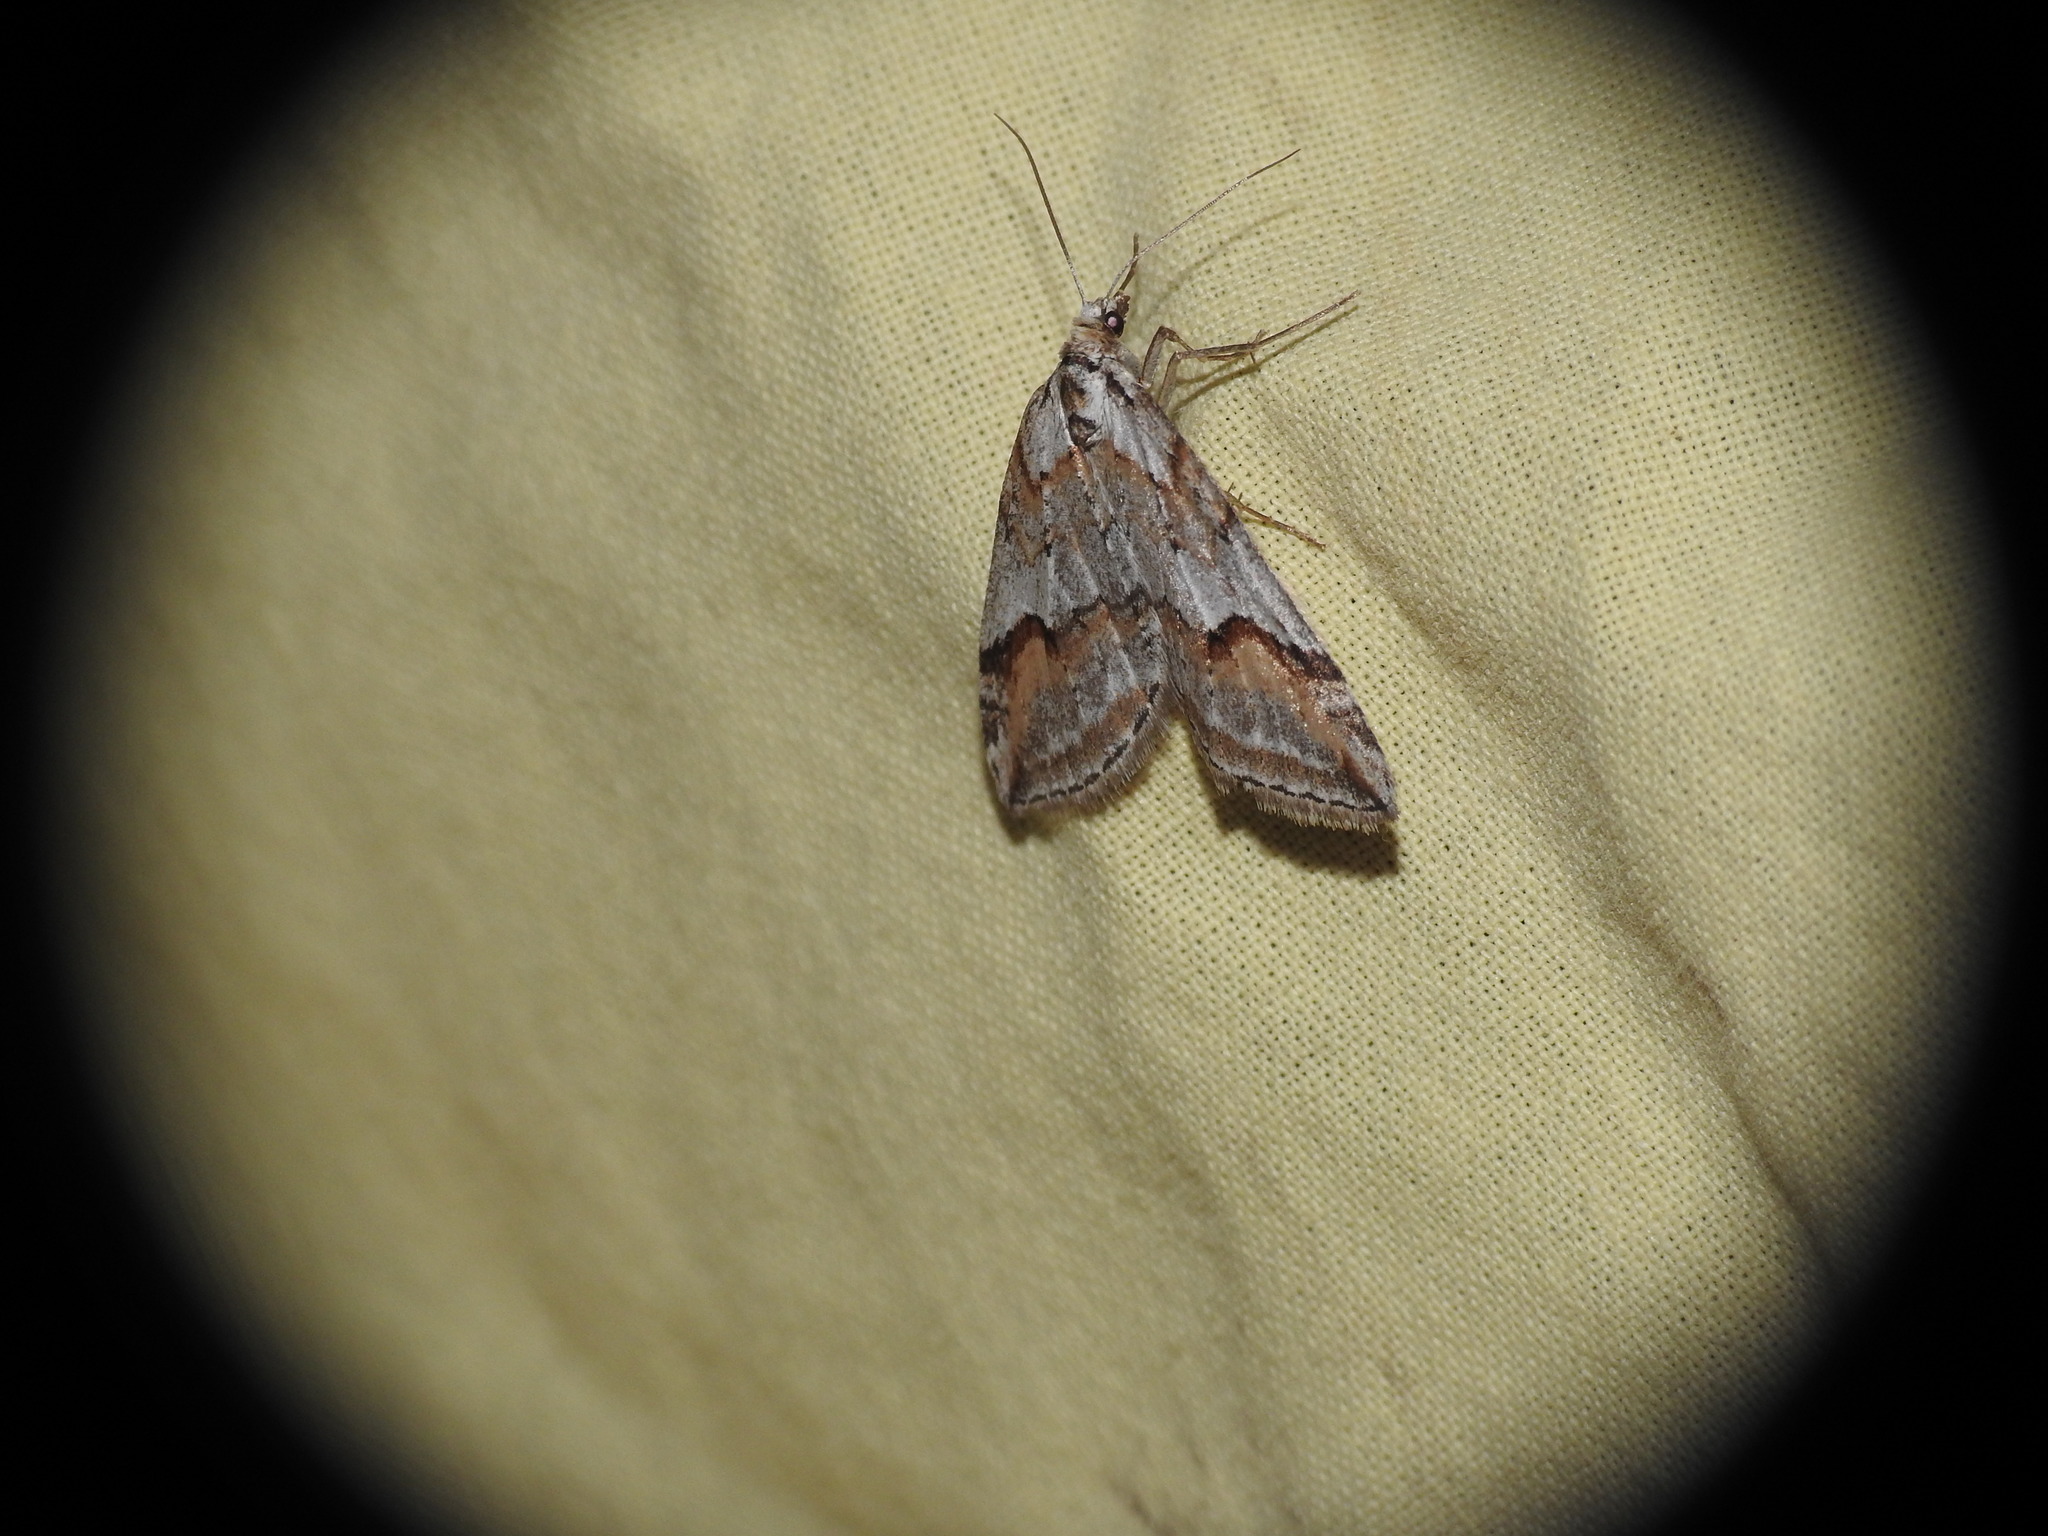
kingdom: Animalia
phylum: Arthropoda
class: Insecta
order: Lepidoptera
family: Geometridae
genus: Chesias
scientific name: Chesias rufata
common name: Broom-tip
